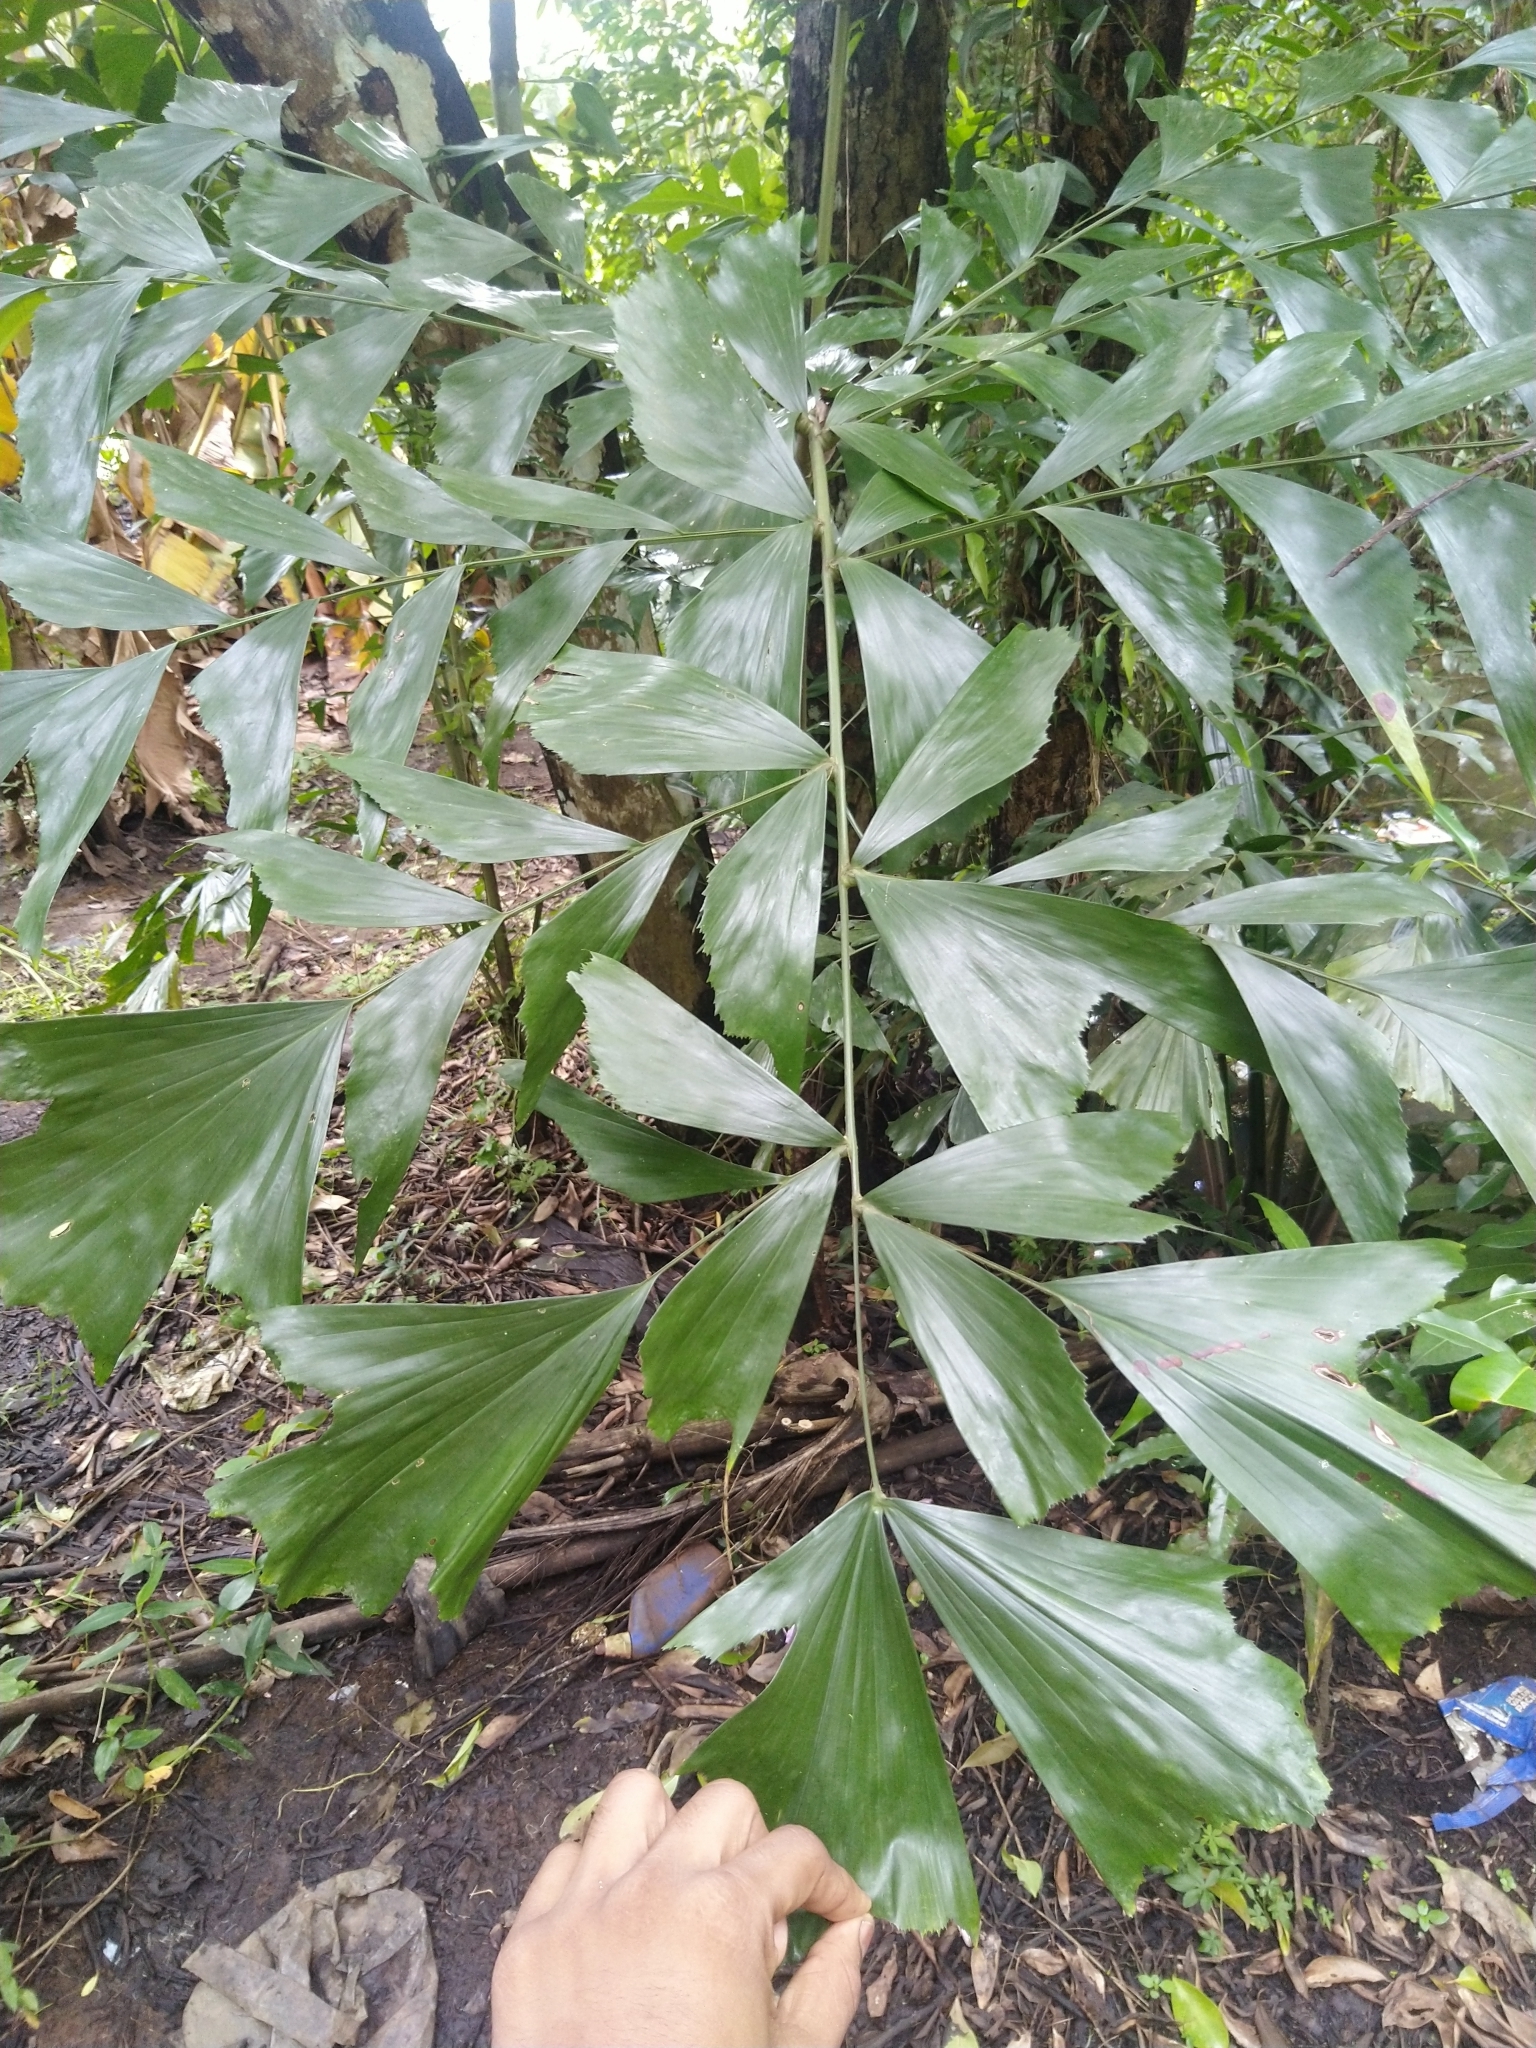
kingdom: Plantae
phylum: Tracheophyta
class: Liliopsida
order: Arecales
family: Arecaceae
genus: Caryota
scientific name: Caryota urens
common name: Jaggery palm
